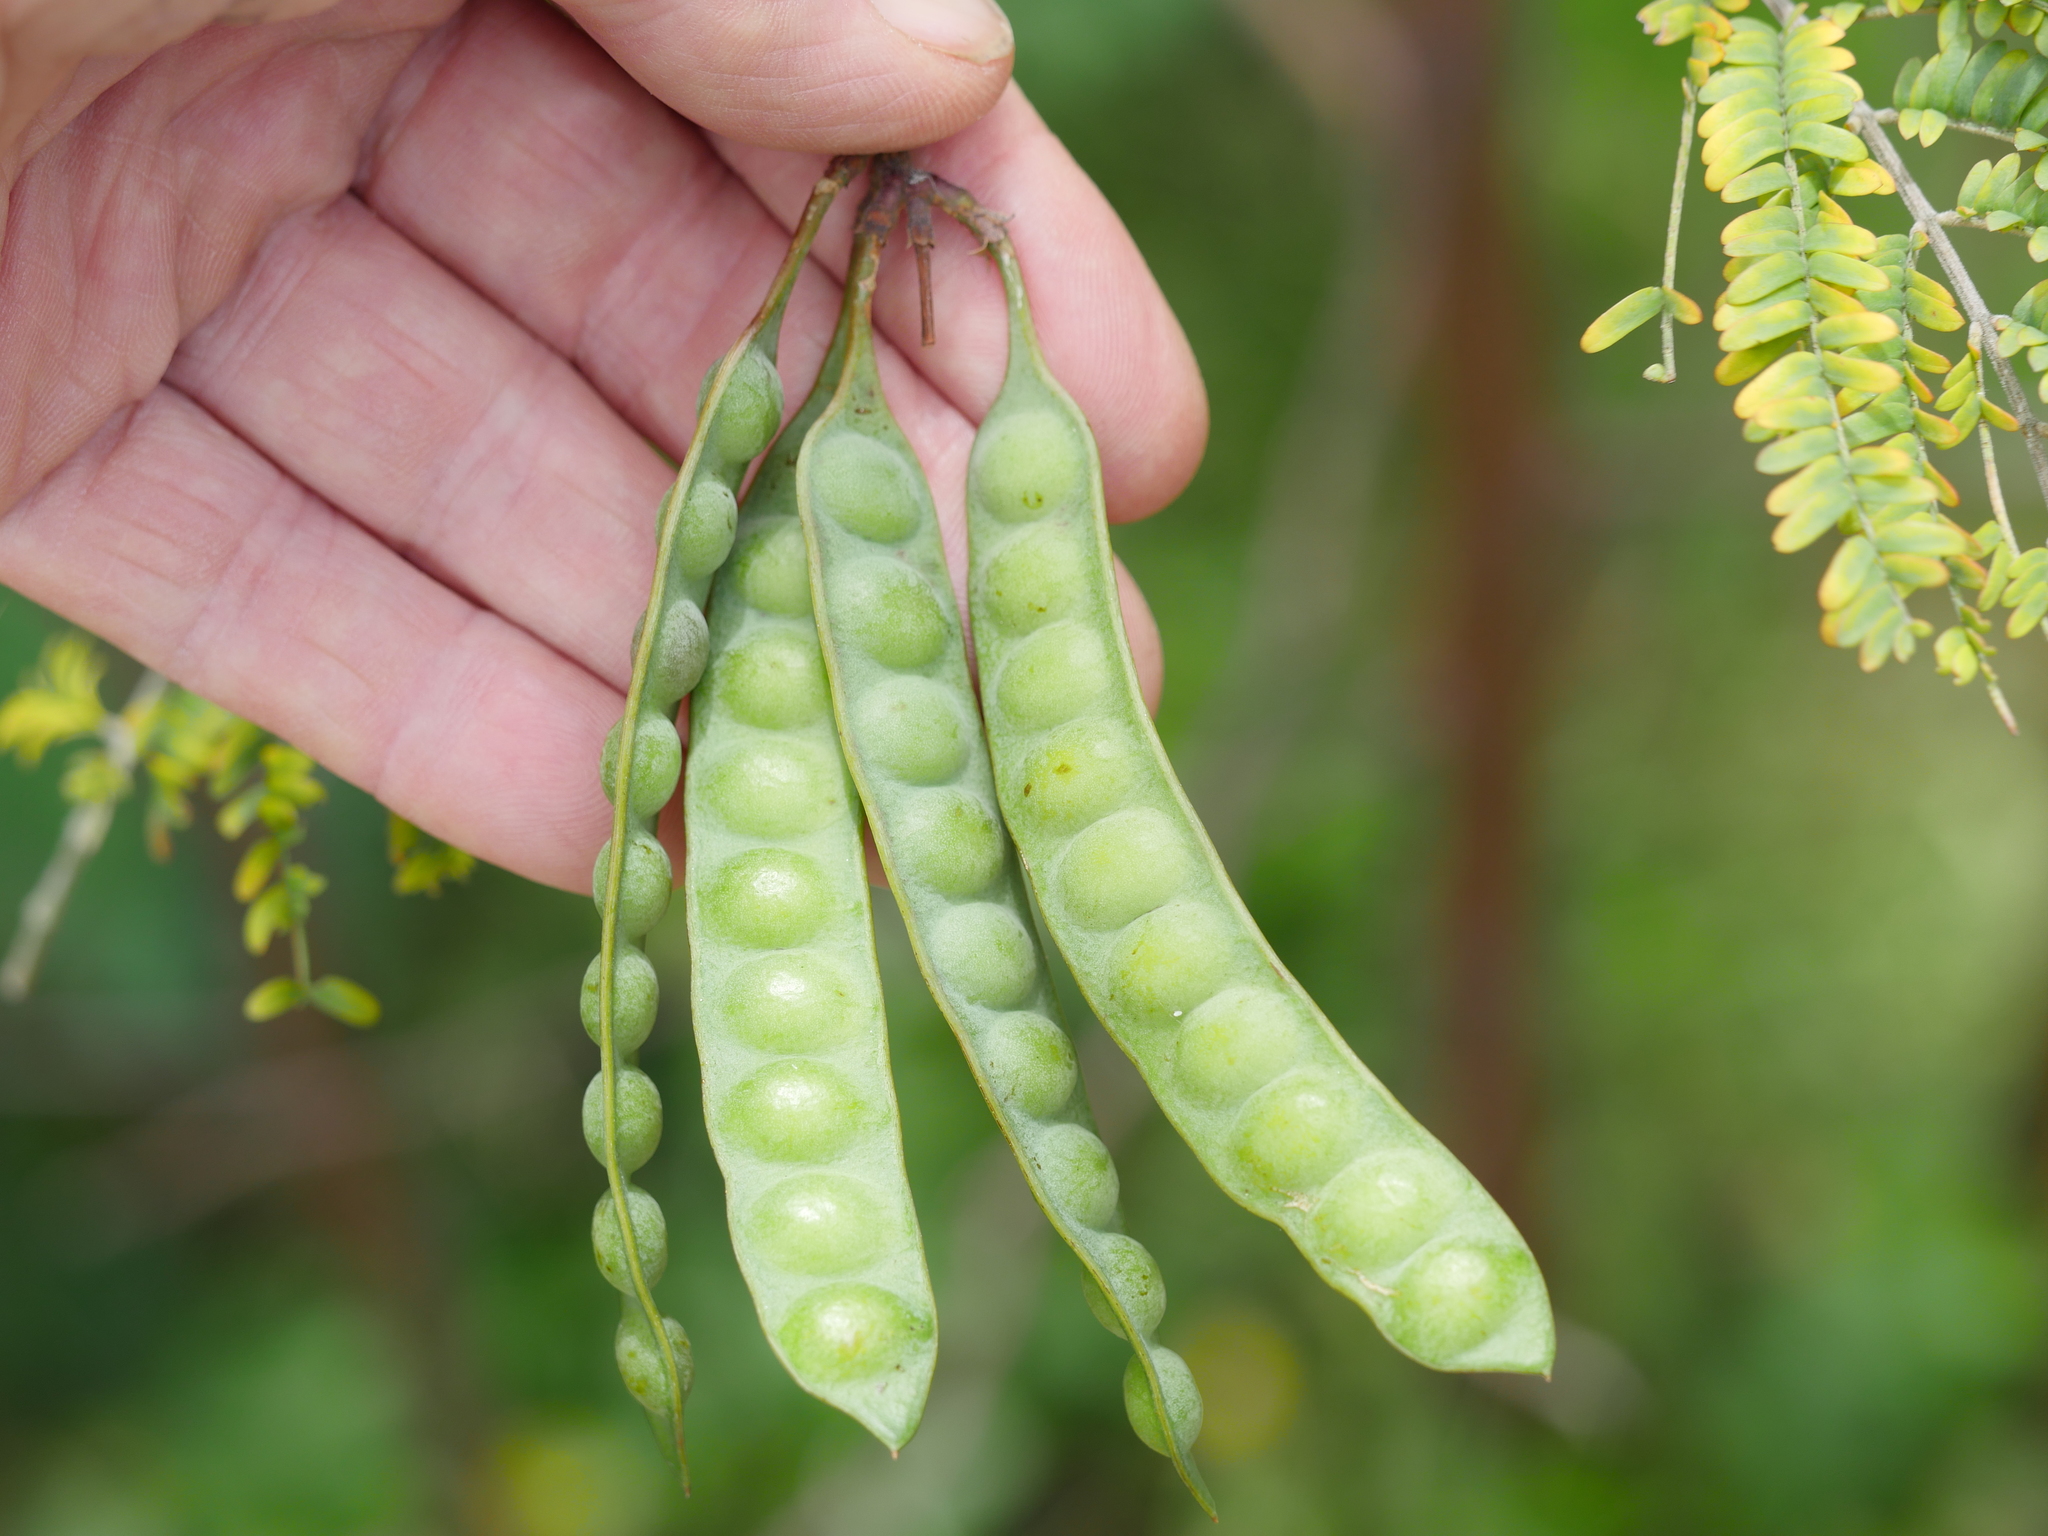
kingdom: Plantae
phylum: Tracheophyta
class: Magnoliopsida
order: Fabales
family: Fabaceae
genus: Paraserianthes
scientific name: Paraserianthes lophantha
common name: Plume albizia
